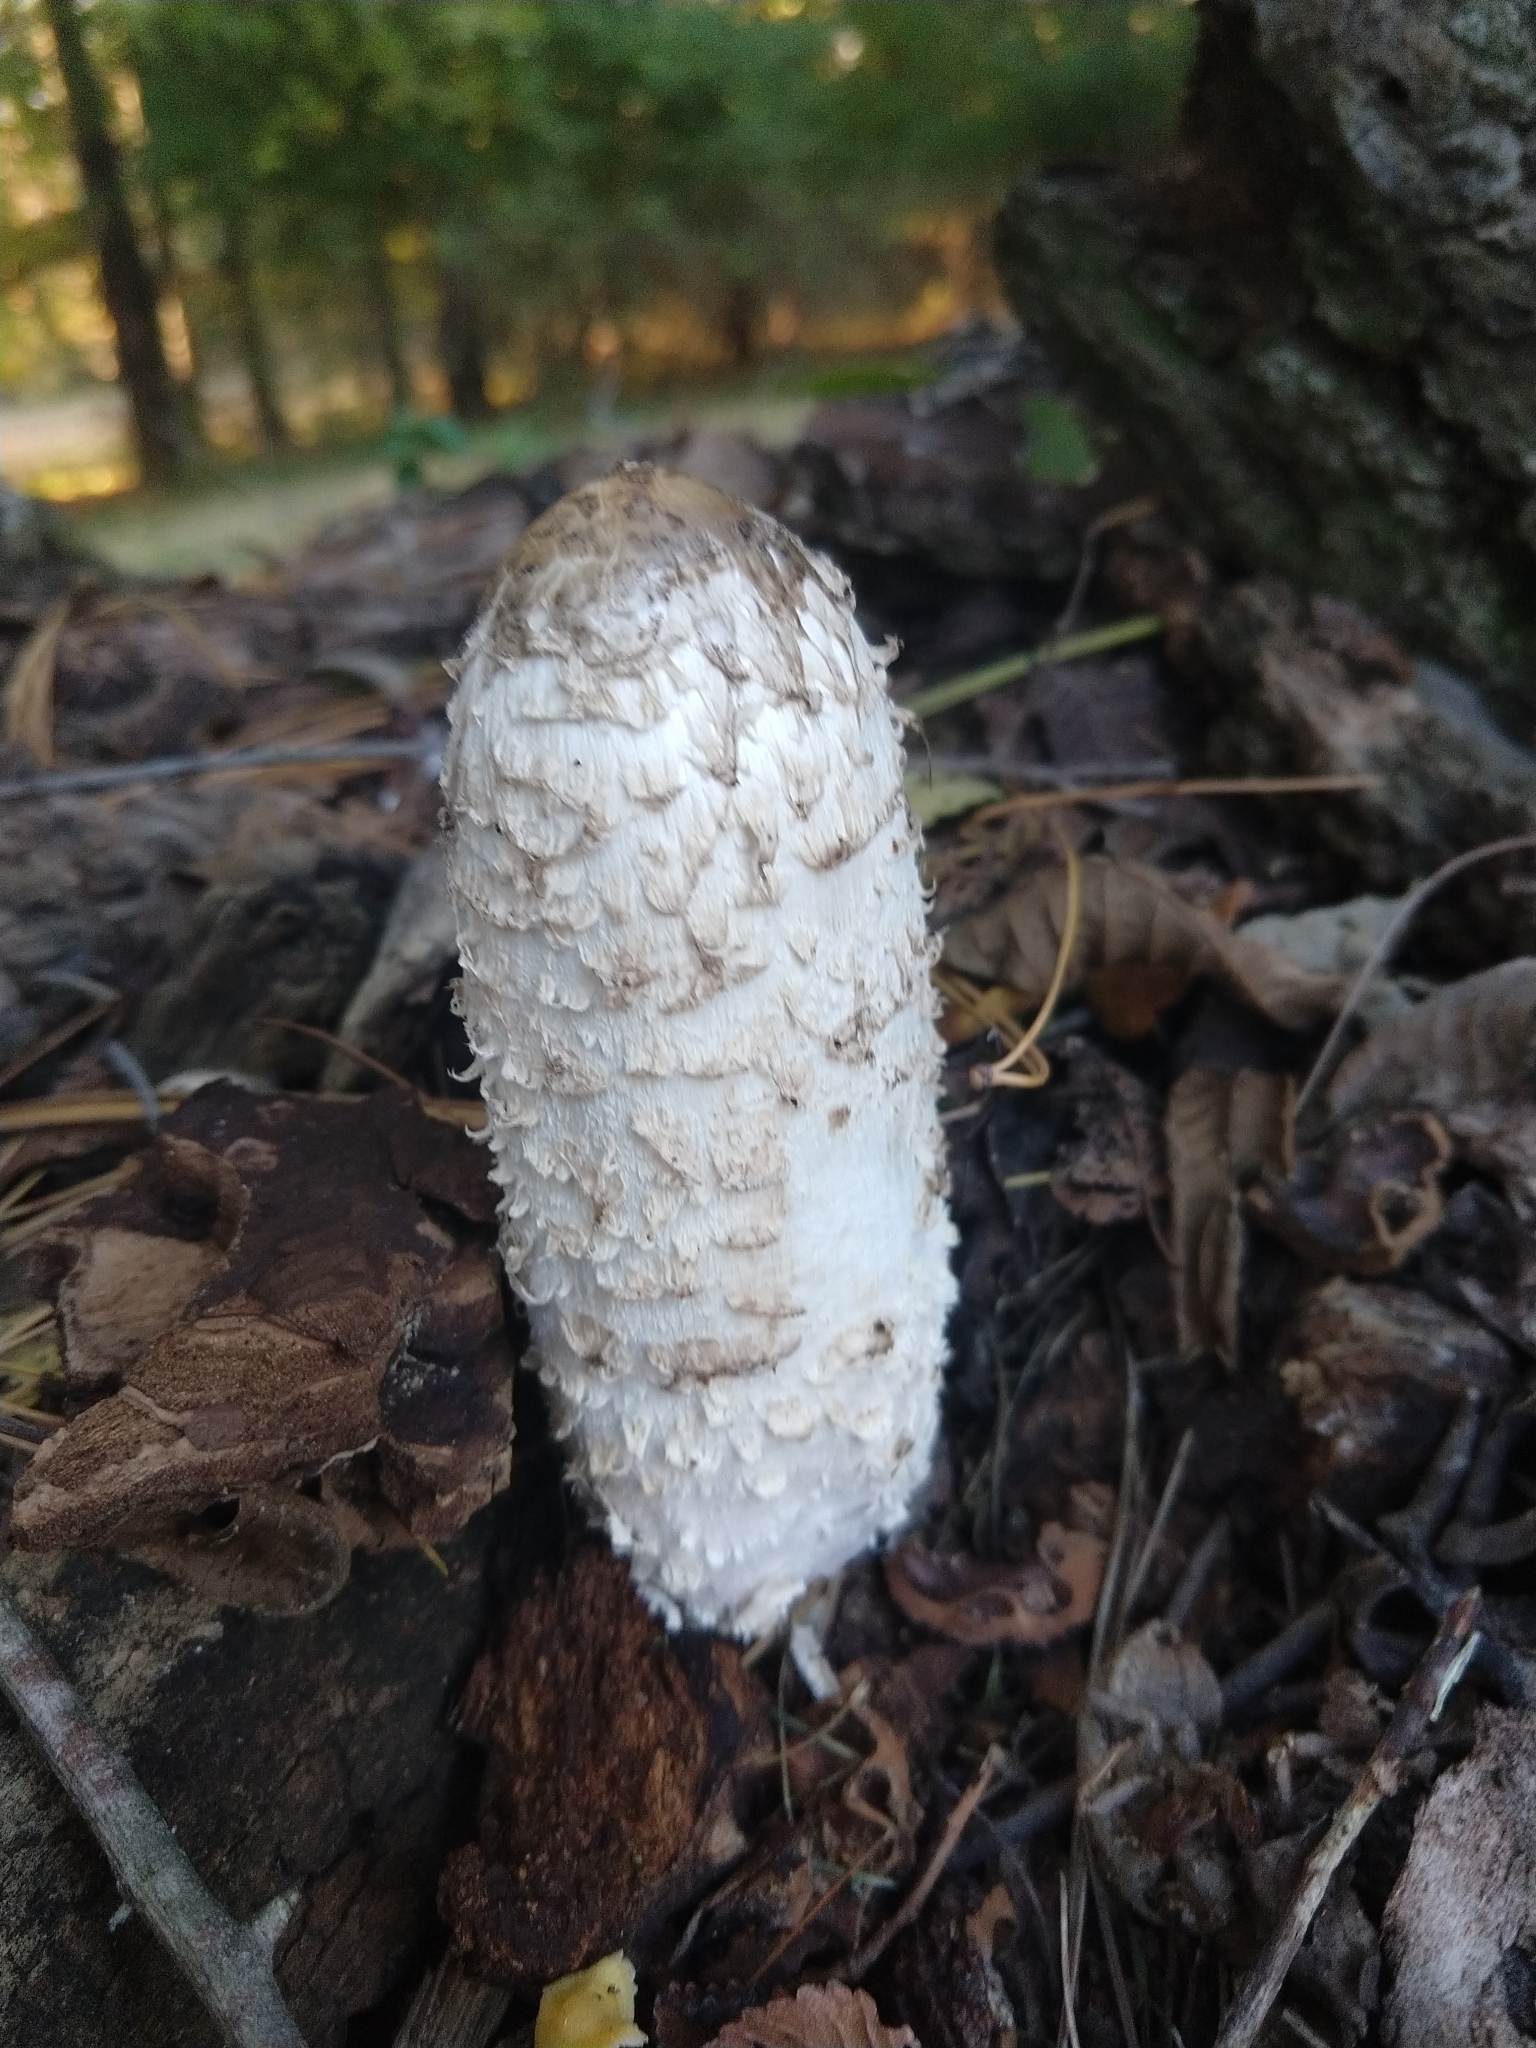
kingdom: Fungi
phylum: Basidiomycota
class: Agaricomycetes
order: Agaricales
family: Agaricaceae
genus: Coprinus
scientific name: Coprinus comatus
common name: Lawyer's wig
